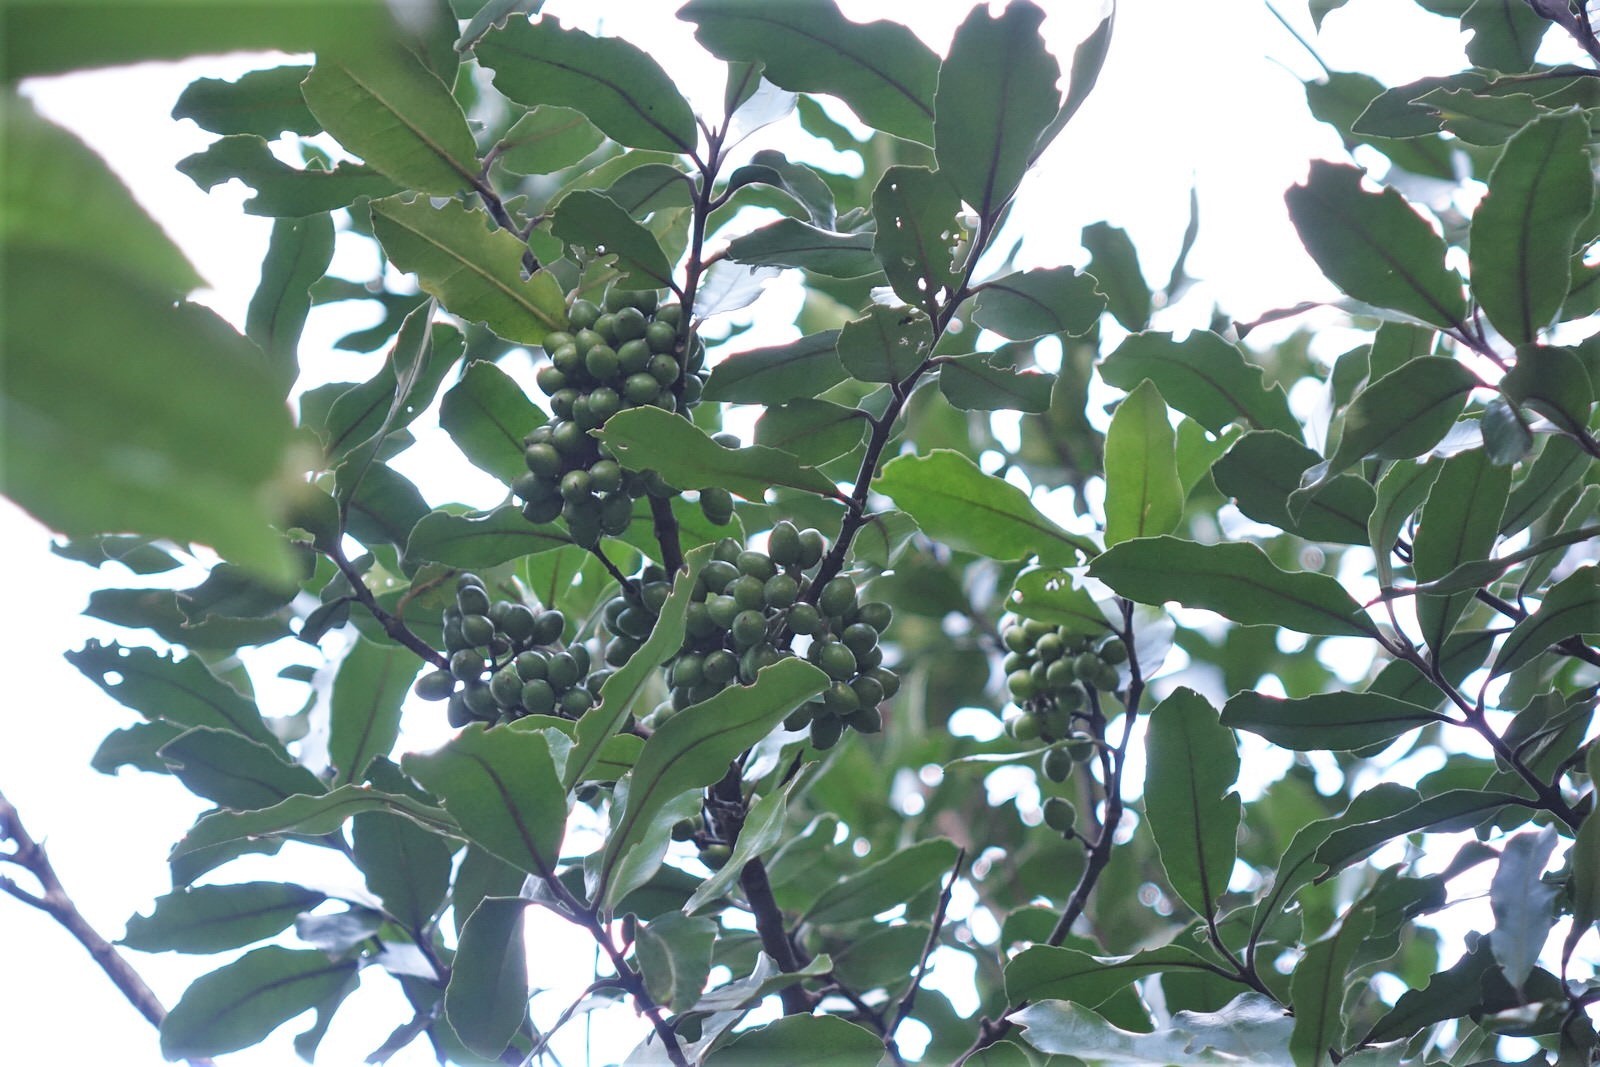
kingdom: Plantae
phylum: Tracheophyta
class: Magnoliopsida
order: Laurales
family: Monimiaceae
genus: Hedycarya
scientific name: Hedycarya arborea
